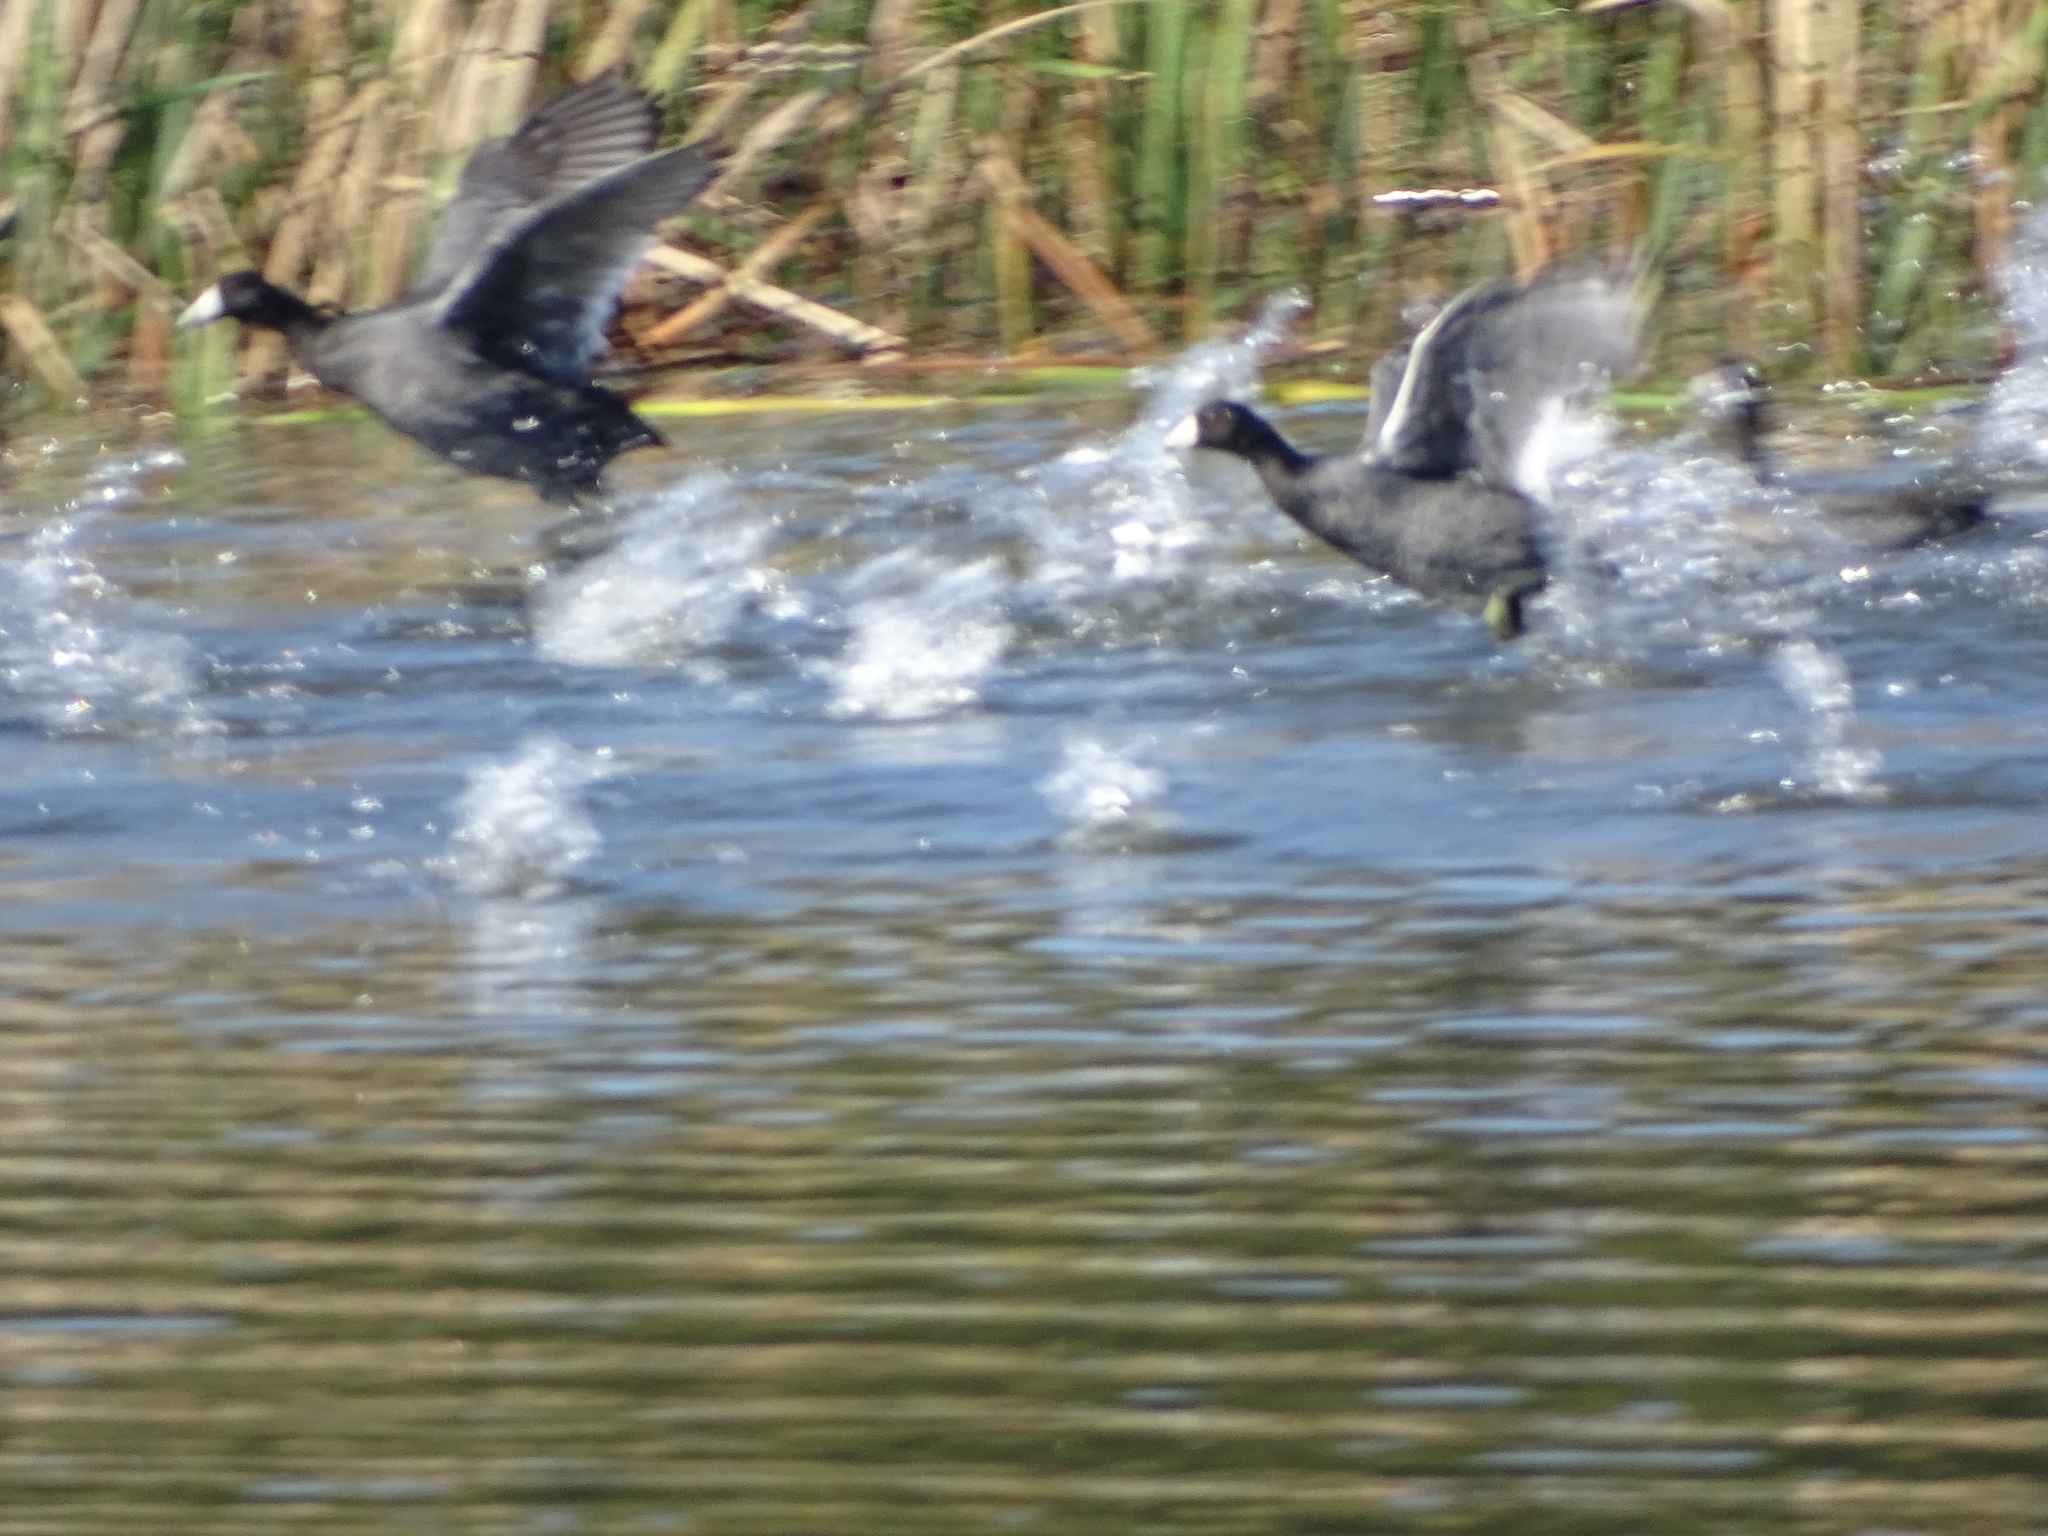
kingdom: Animalia
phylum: Chordata
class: Aves
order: Gruiformes
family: Rallidae
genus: Fulica
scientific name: Fulica americana
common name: American coot
